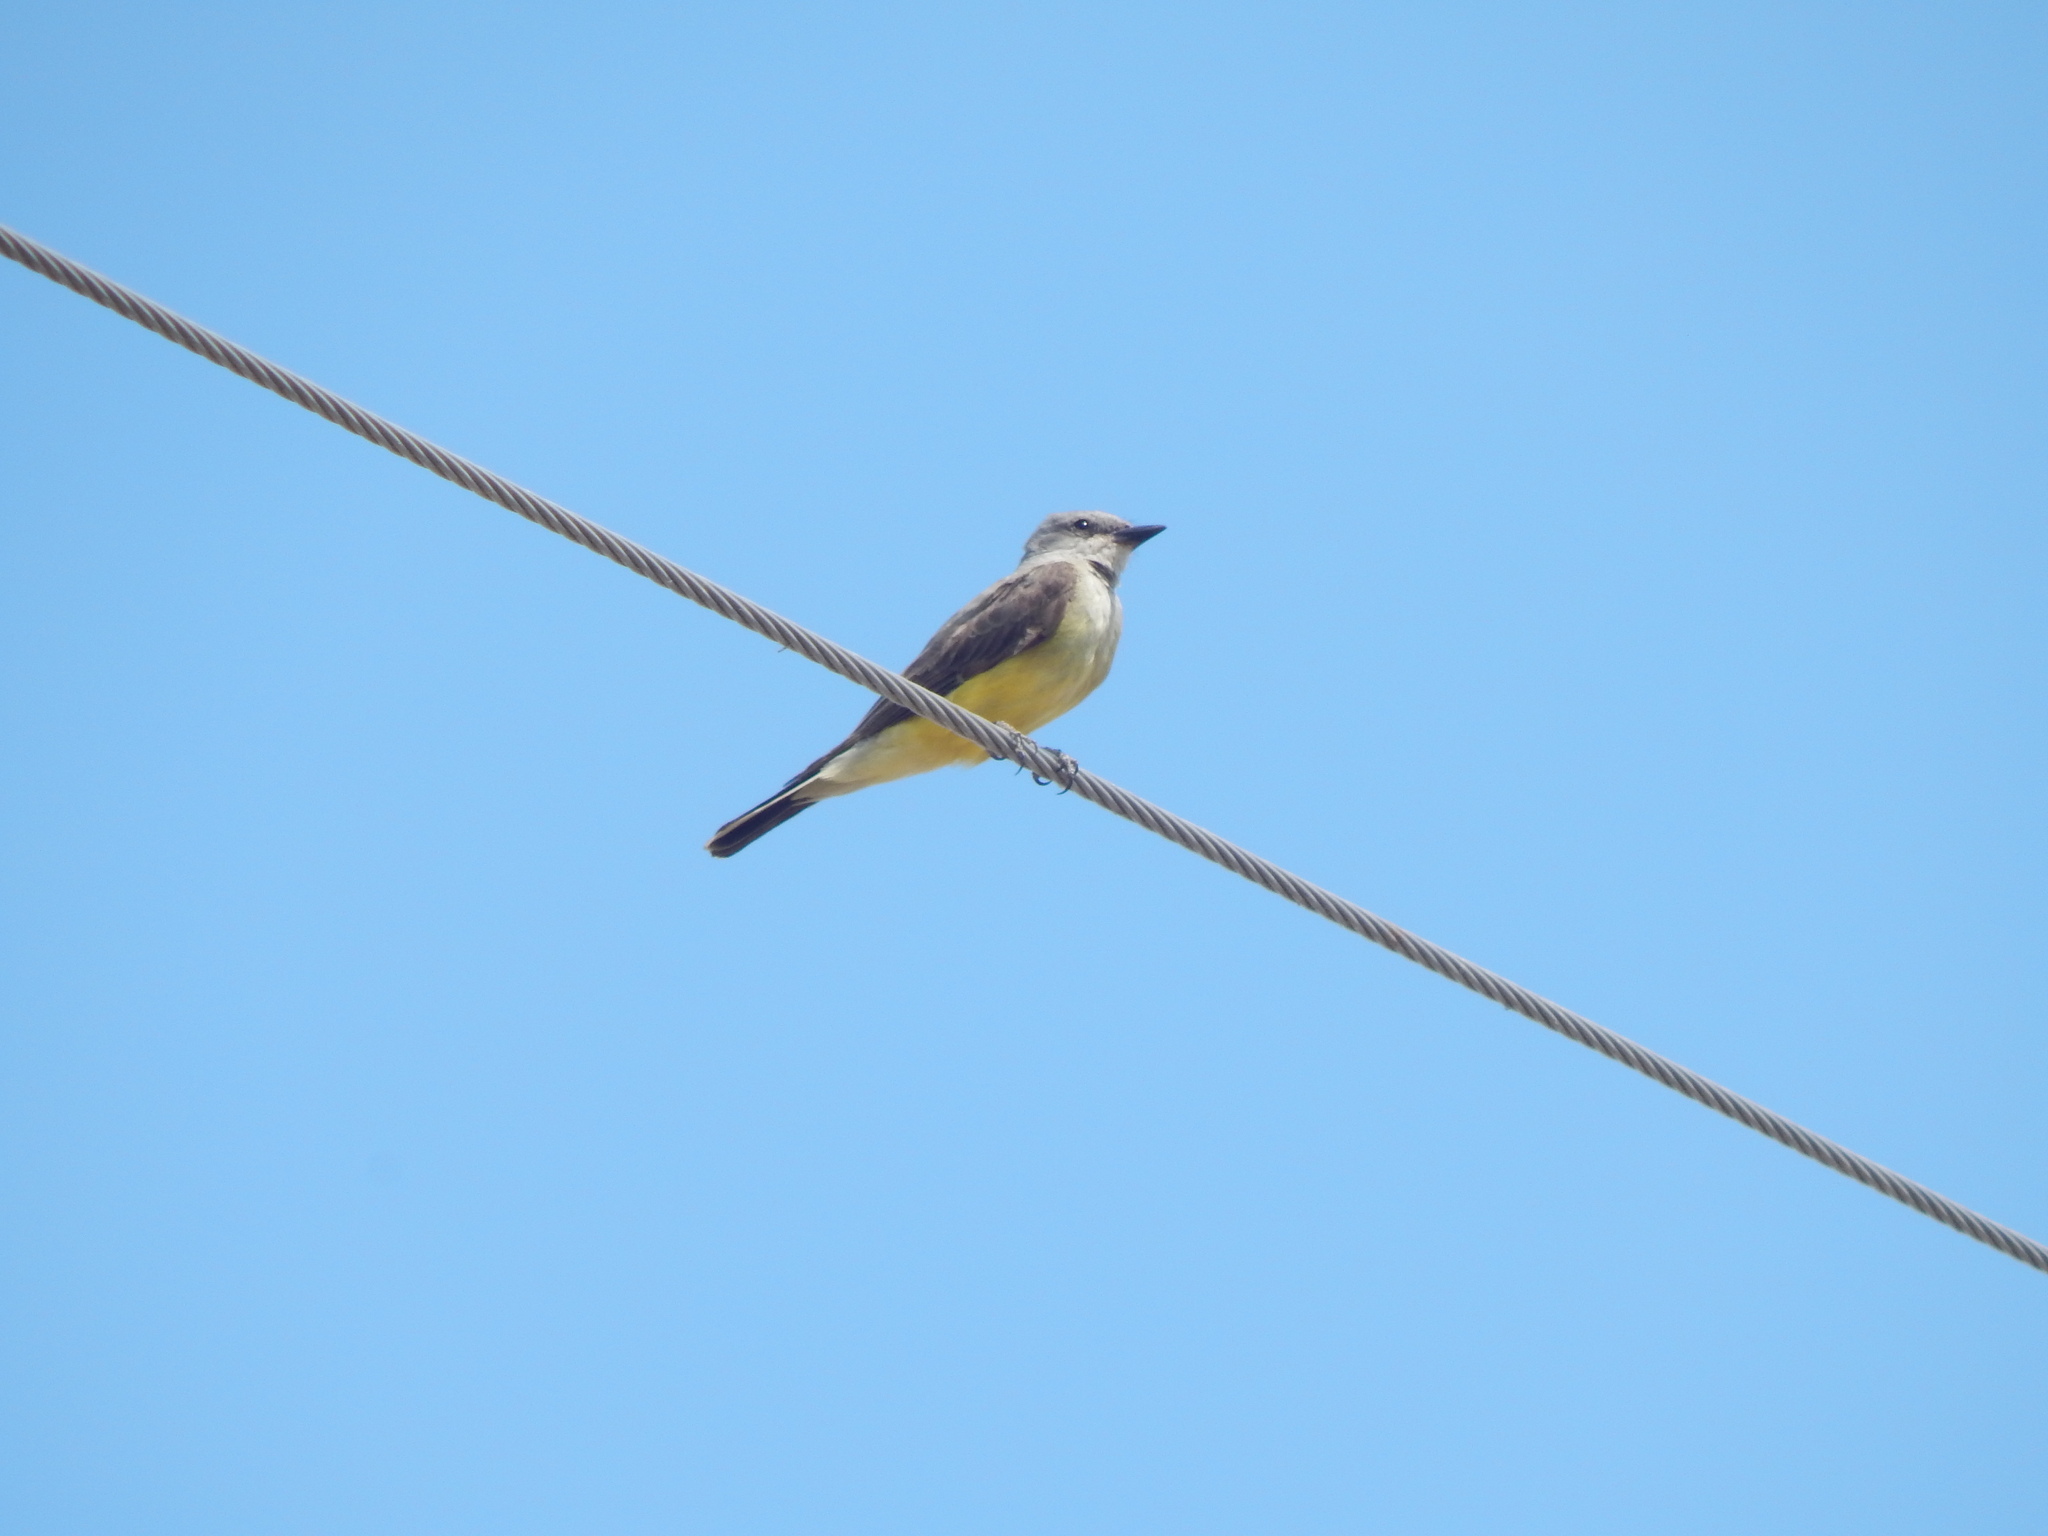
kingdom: Animalia
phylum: Chordata
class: Aves
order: Passeriformes
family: Tyrannidae
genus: Tyrannus
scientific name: Tyrannus verticalis
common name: Western kingbird
